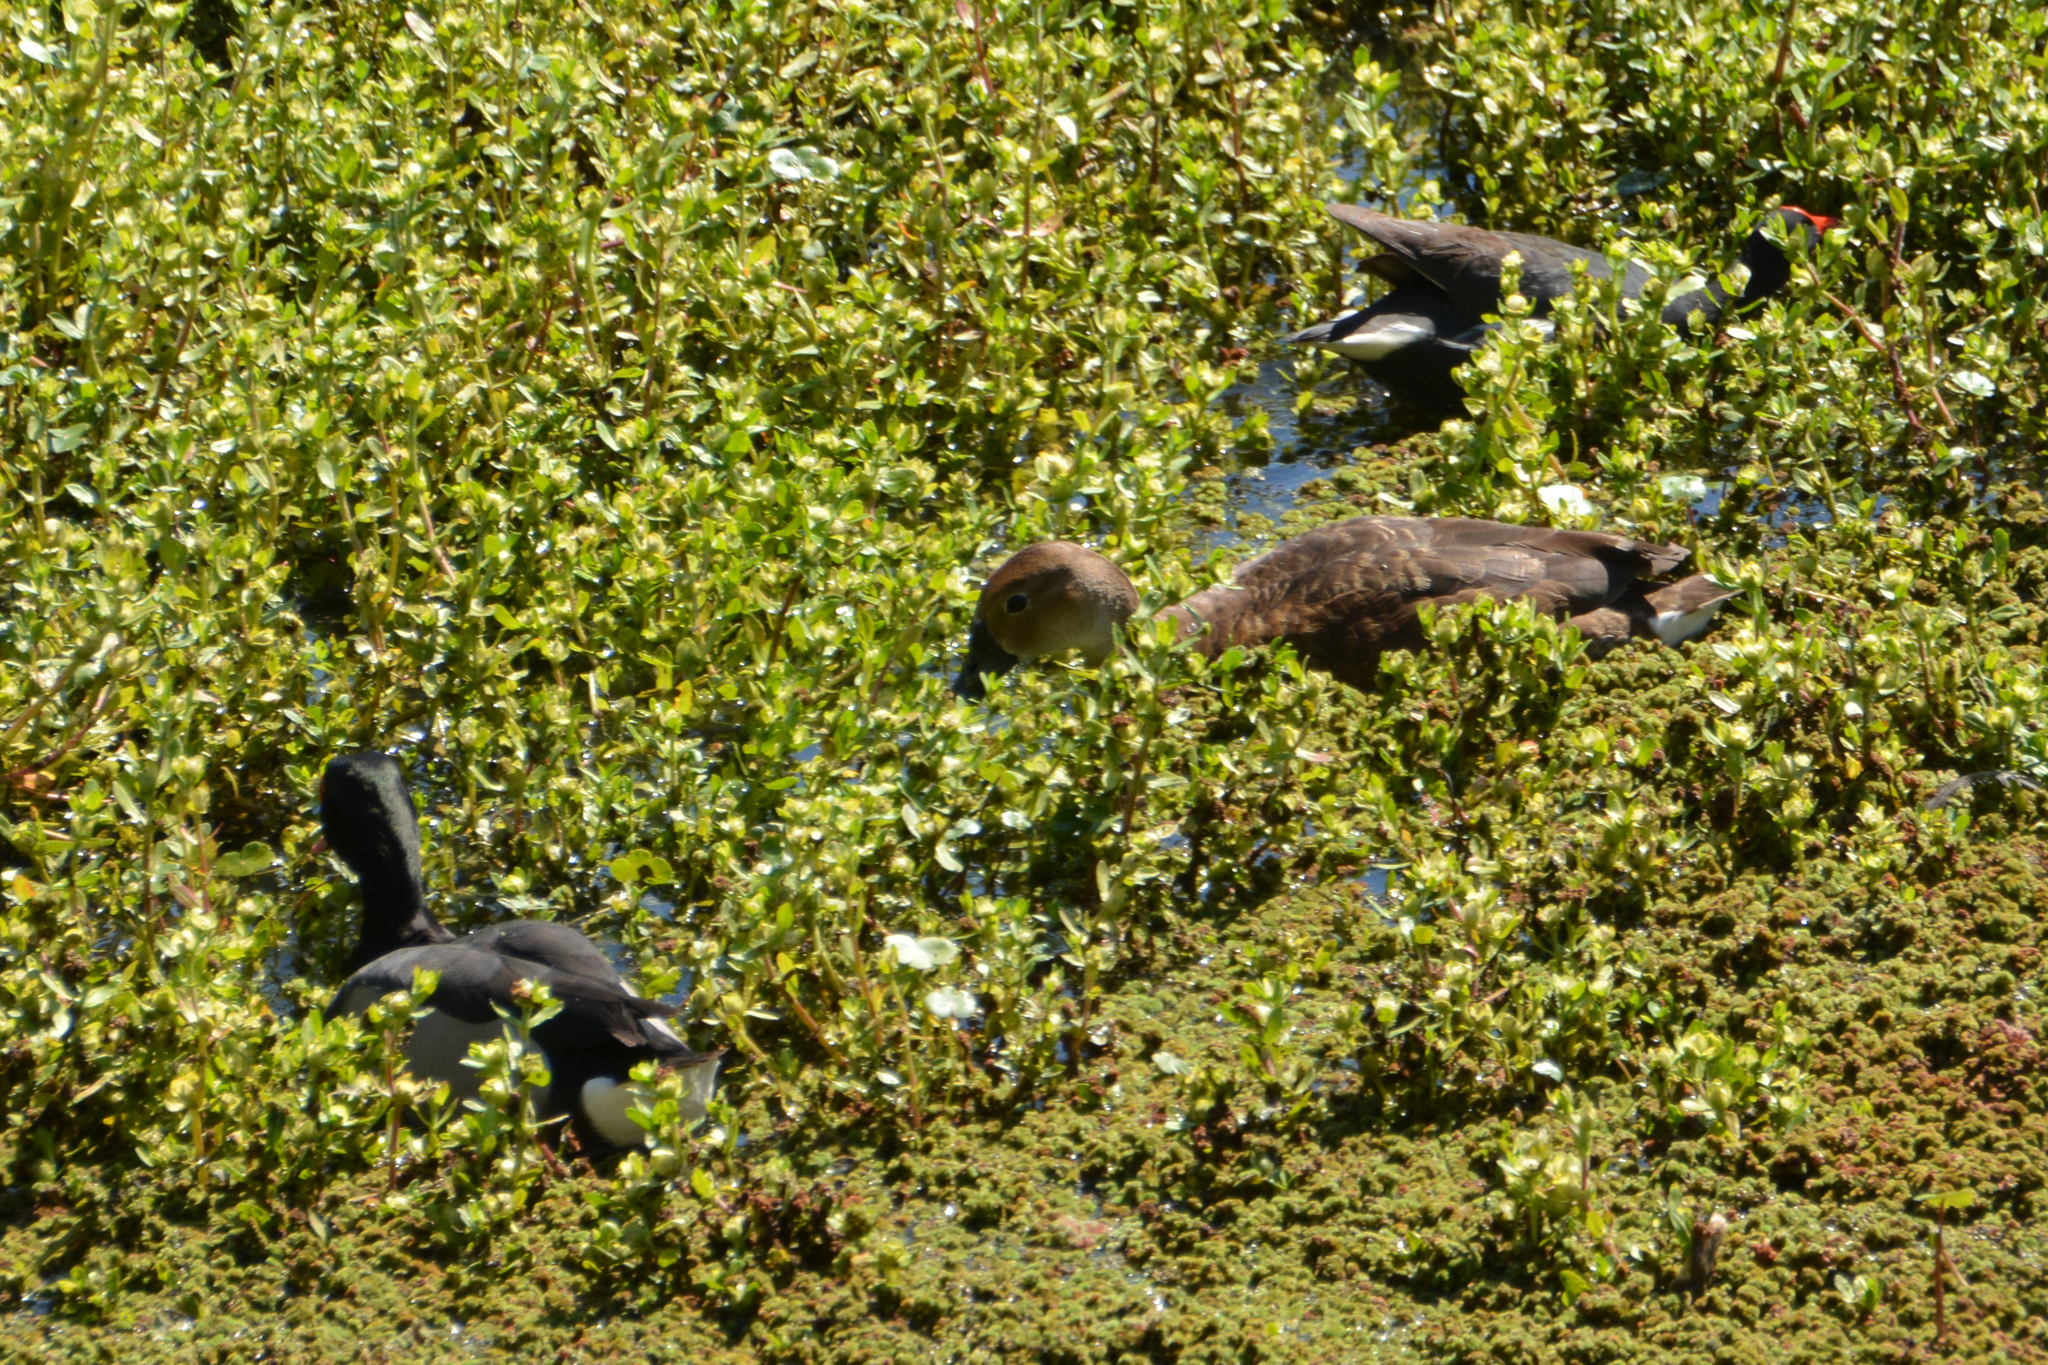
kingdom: Animalia
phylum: Chordata
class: Aves
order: Anseriformes
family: Anatidae
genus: Netta
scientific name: Netta peposaca
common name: Rosy-billed pochard
